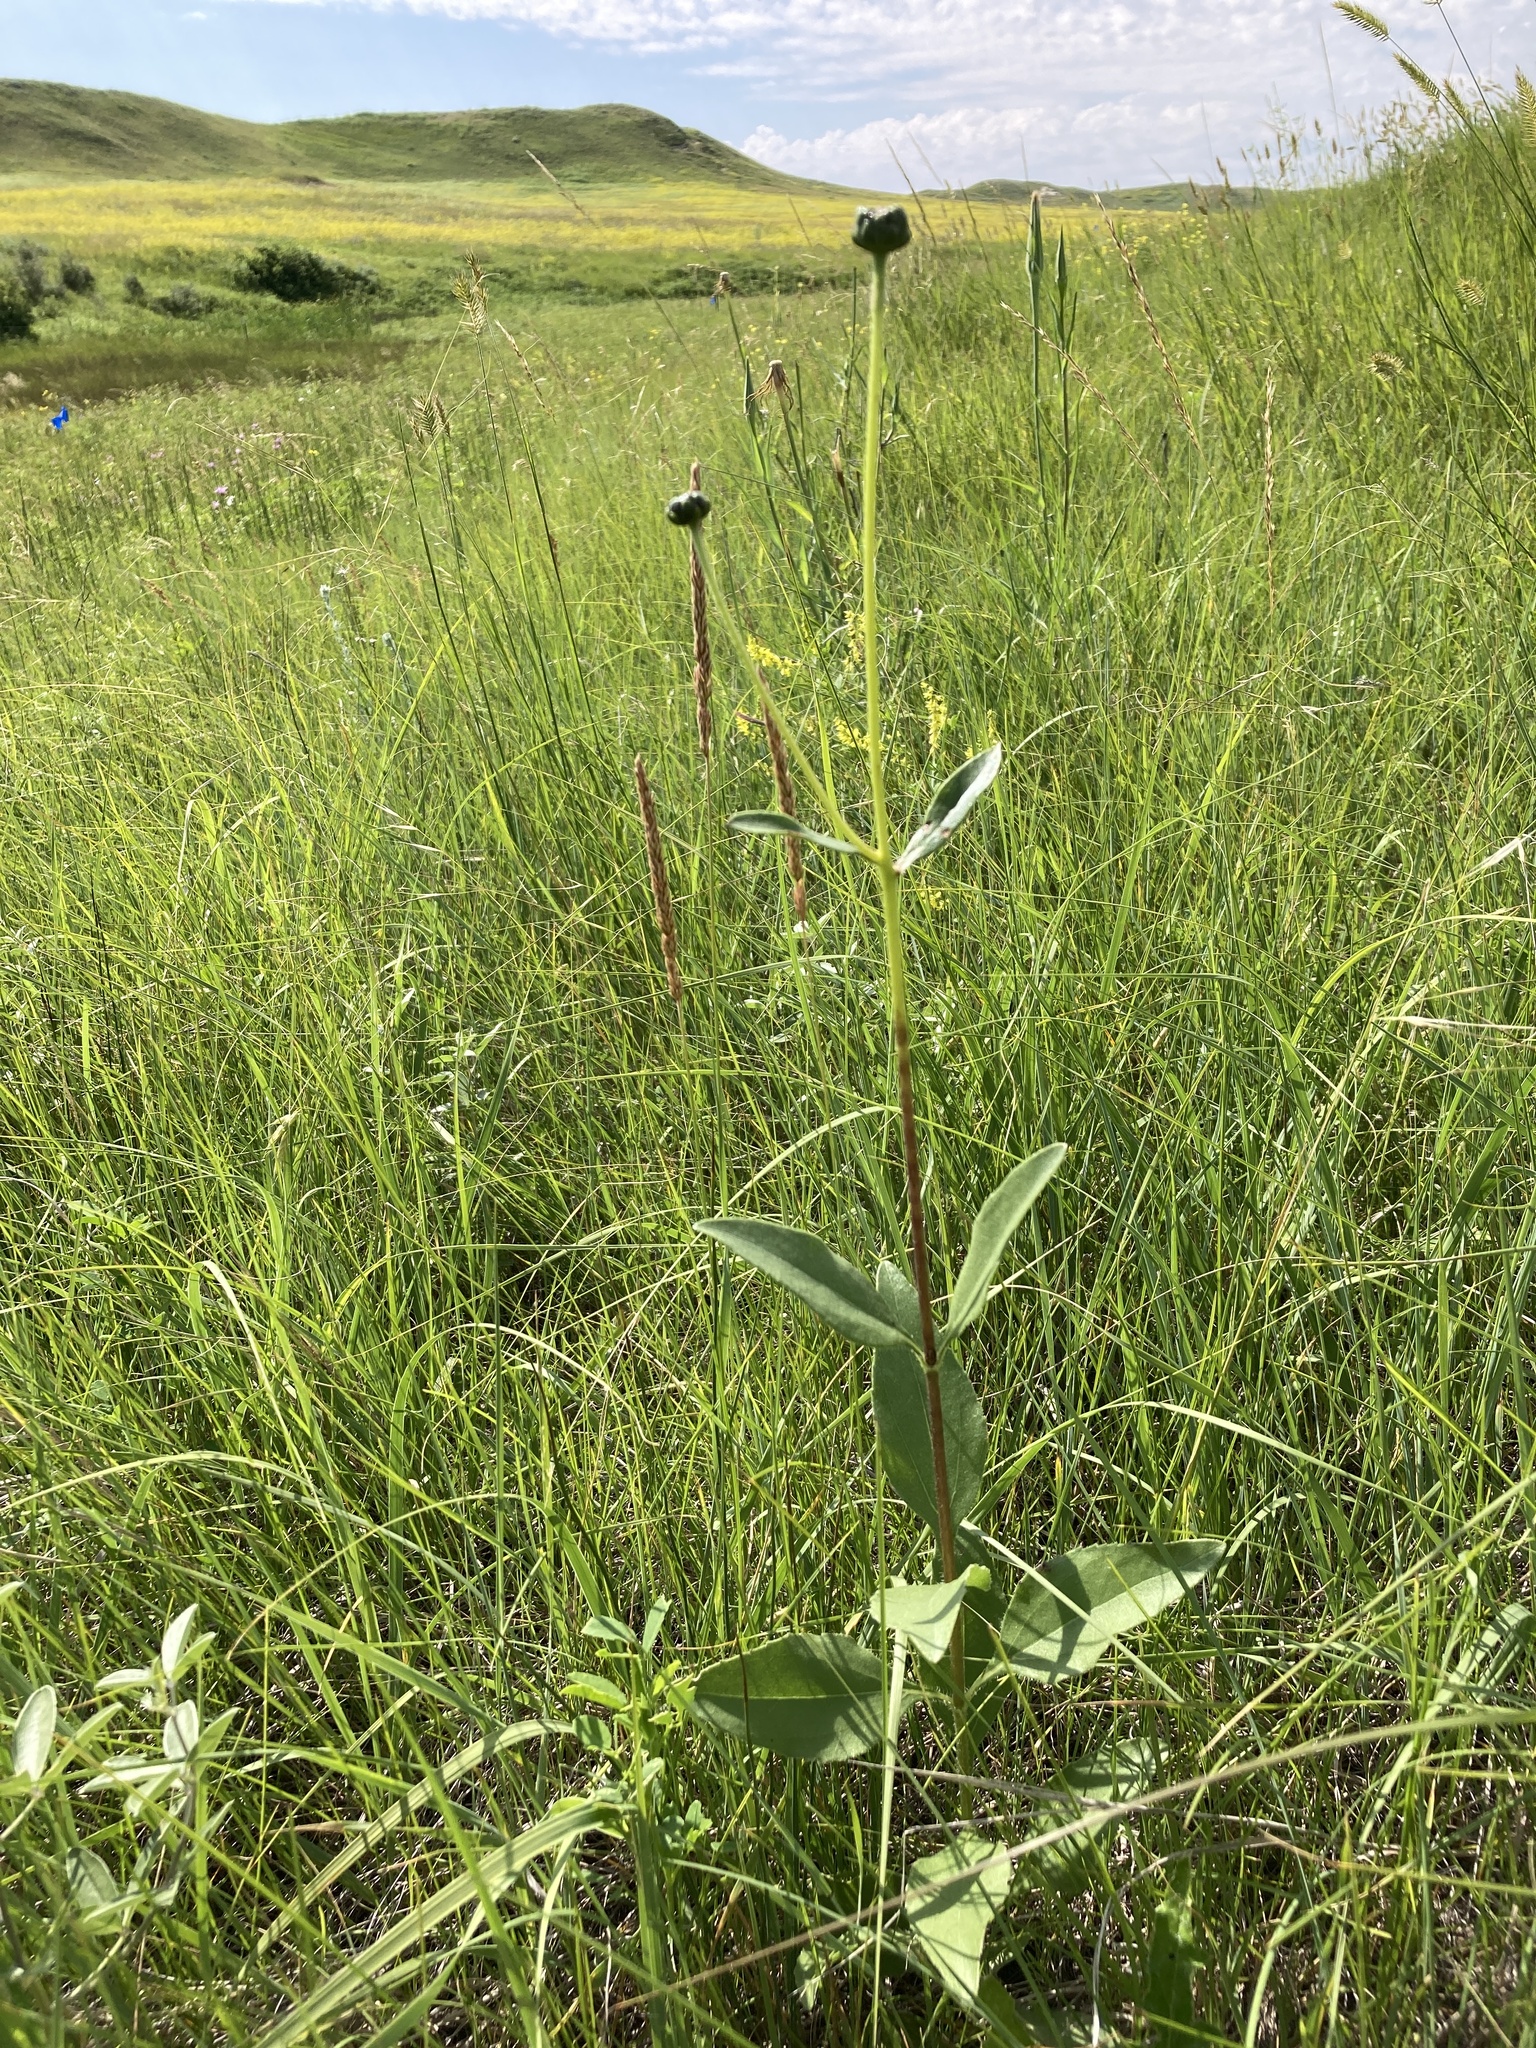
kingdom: Plantae
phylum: Tracheophyta
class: Magnoliopsida
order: Asterales
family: Asteraceae
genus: Helianthus
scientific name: Helianthus pauciflorus
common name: Stiff sunflower
